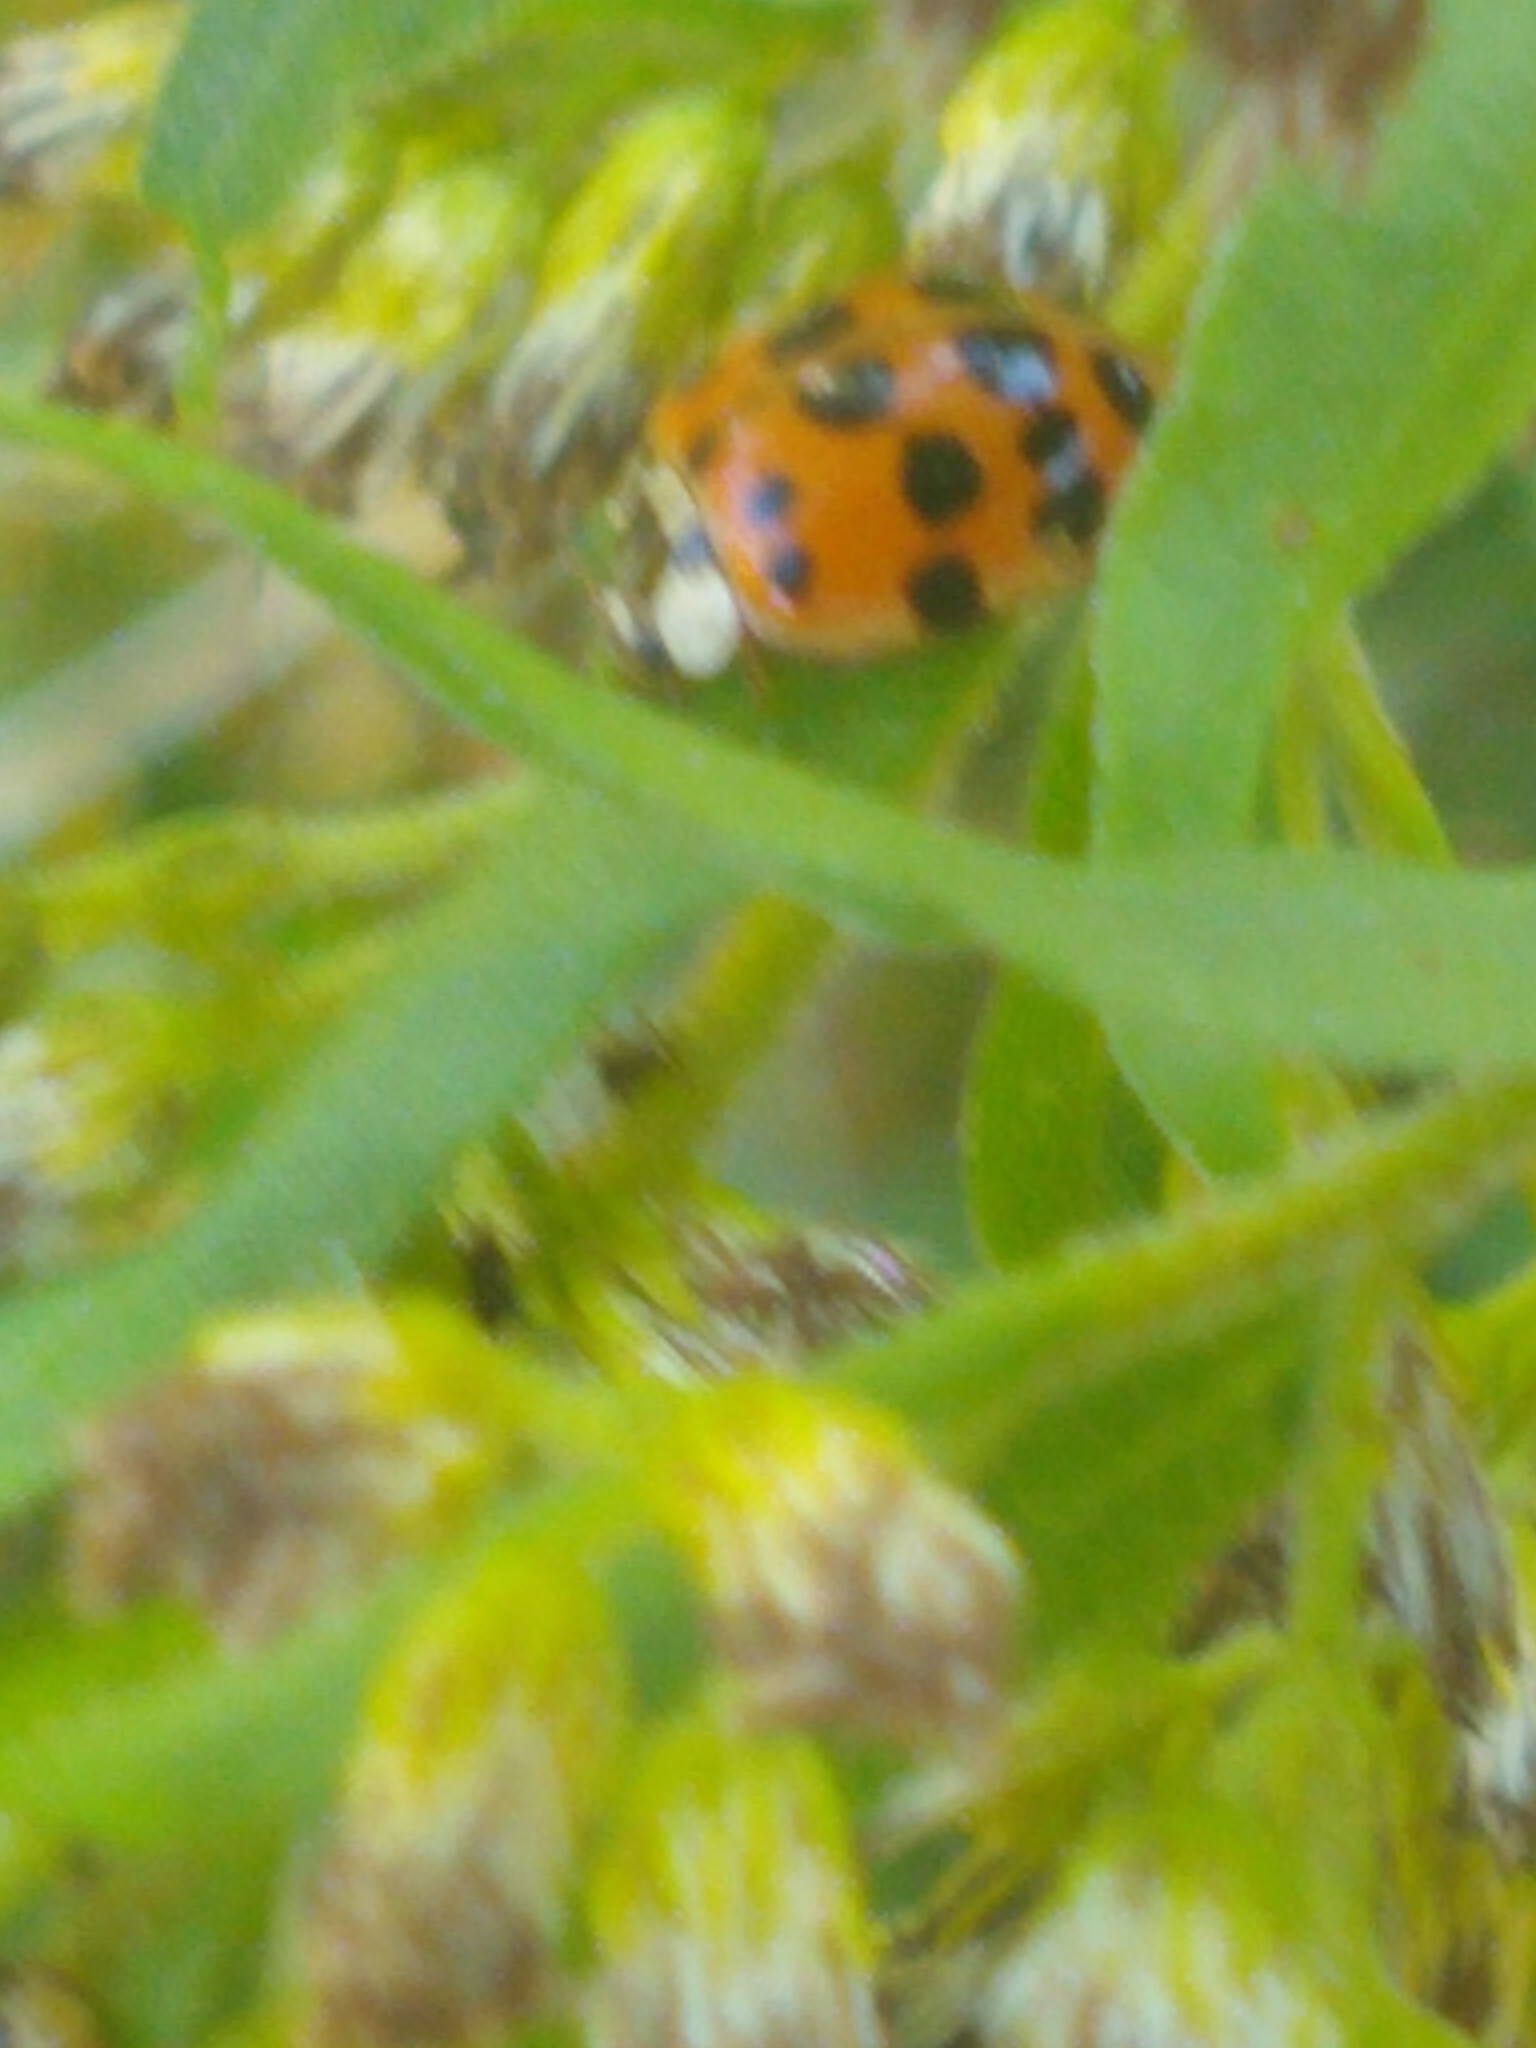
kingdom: Animalia
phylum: Arthropoda
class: Insecta
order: Coleoptera
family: Coccinellidae
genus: Harmonia
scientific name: Harmonia axyridis
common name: Harlequin ladybird
